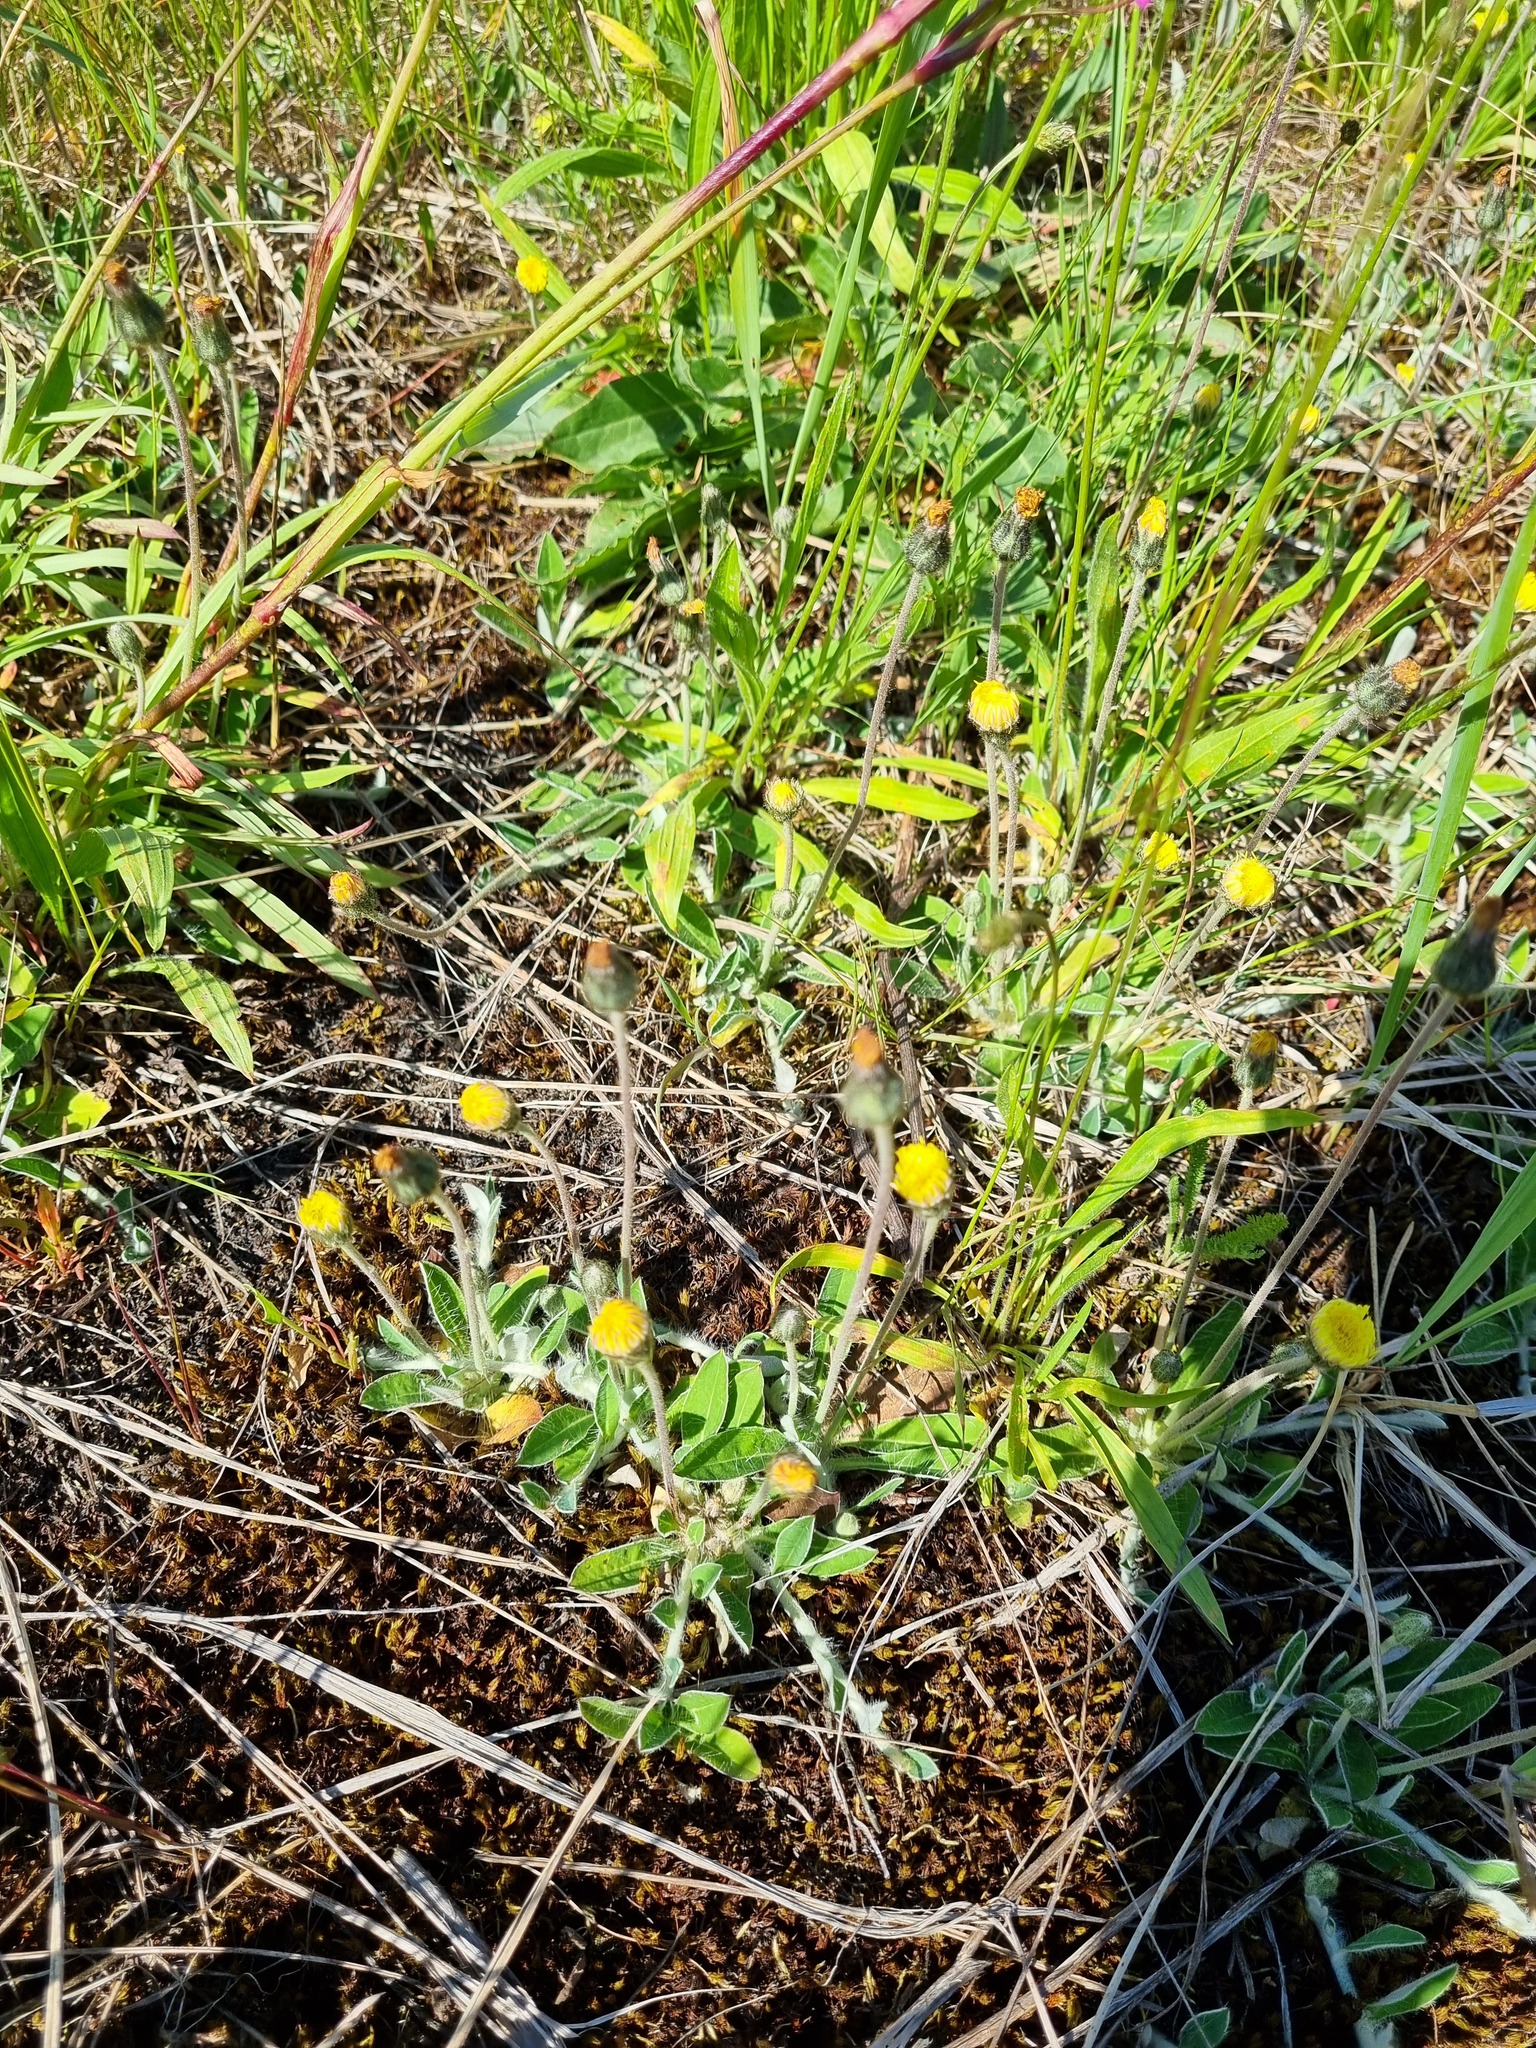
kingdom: Plantae
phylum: Tracheophyta
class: Magnoliopsida
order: Asterales
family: Asteraceae
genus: Pilosella
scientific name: Pilosella officinarum
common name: Mouse-ear hawkweed
